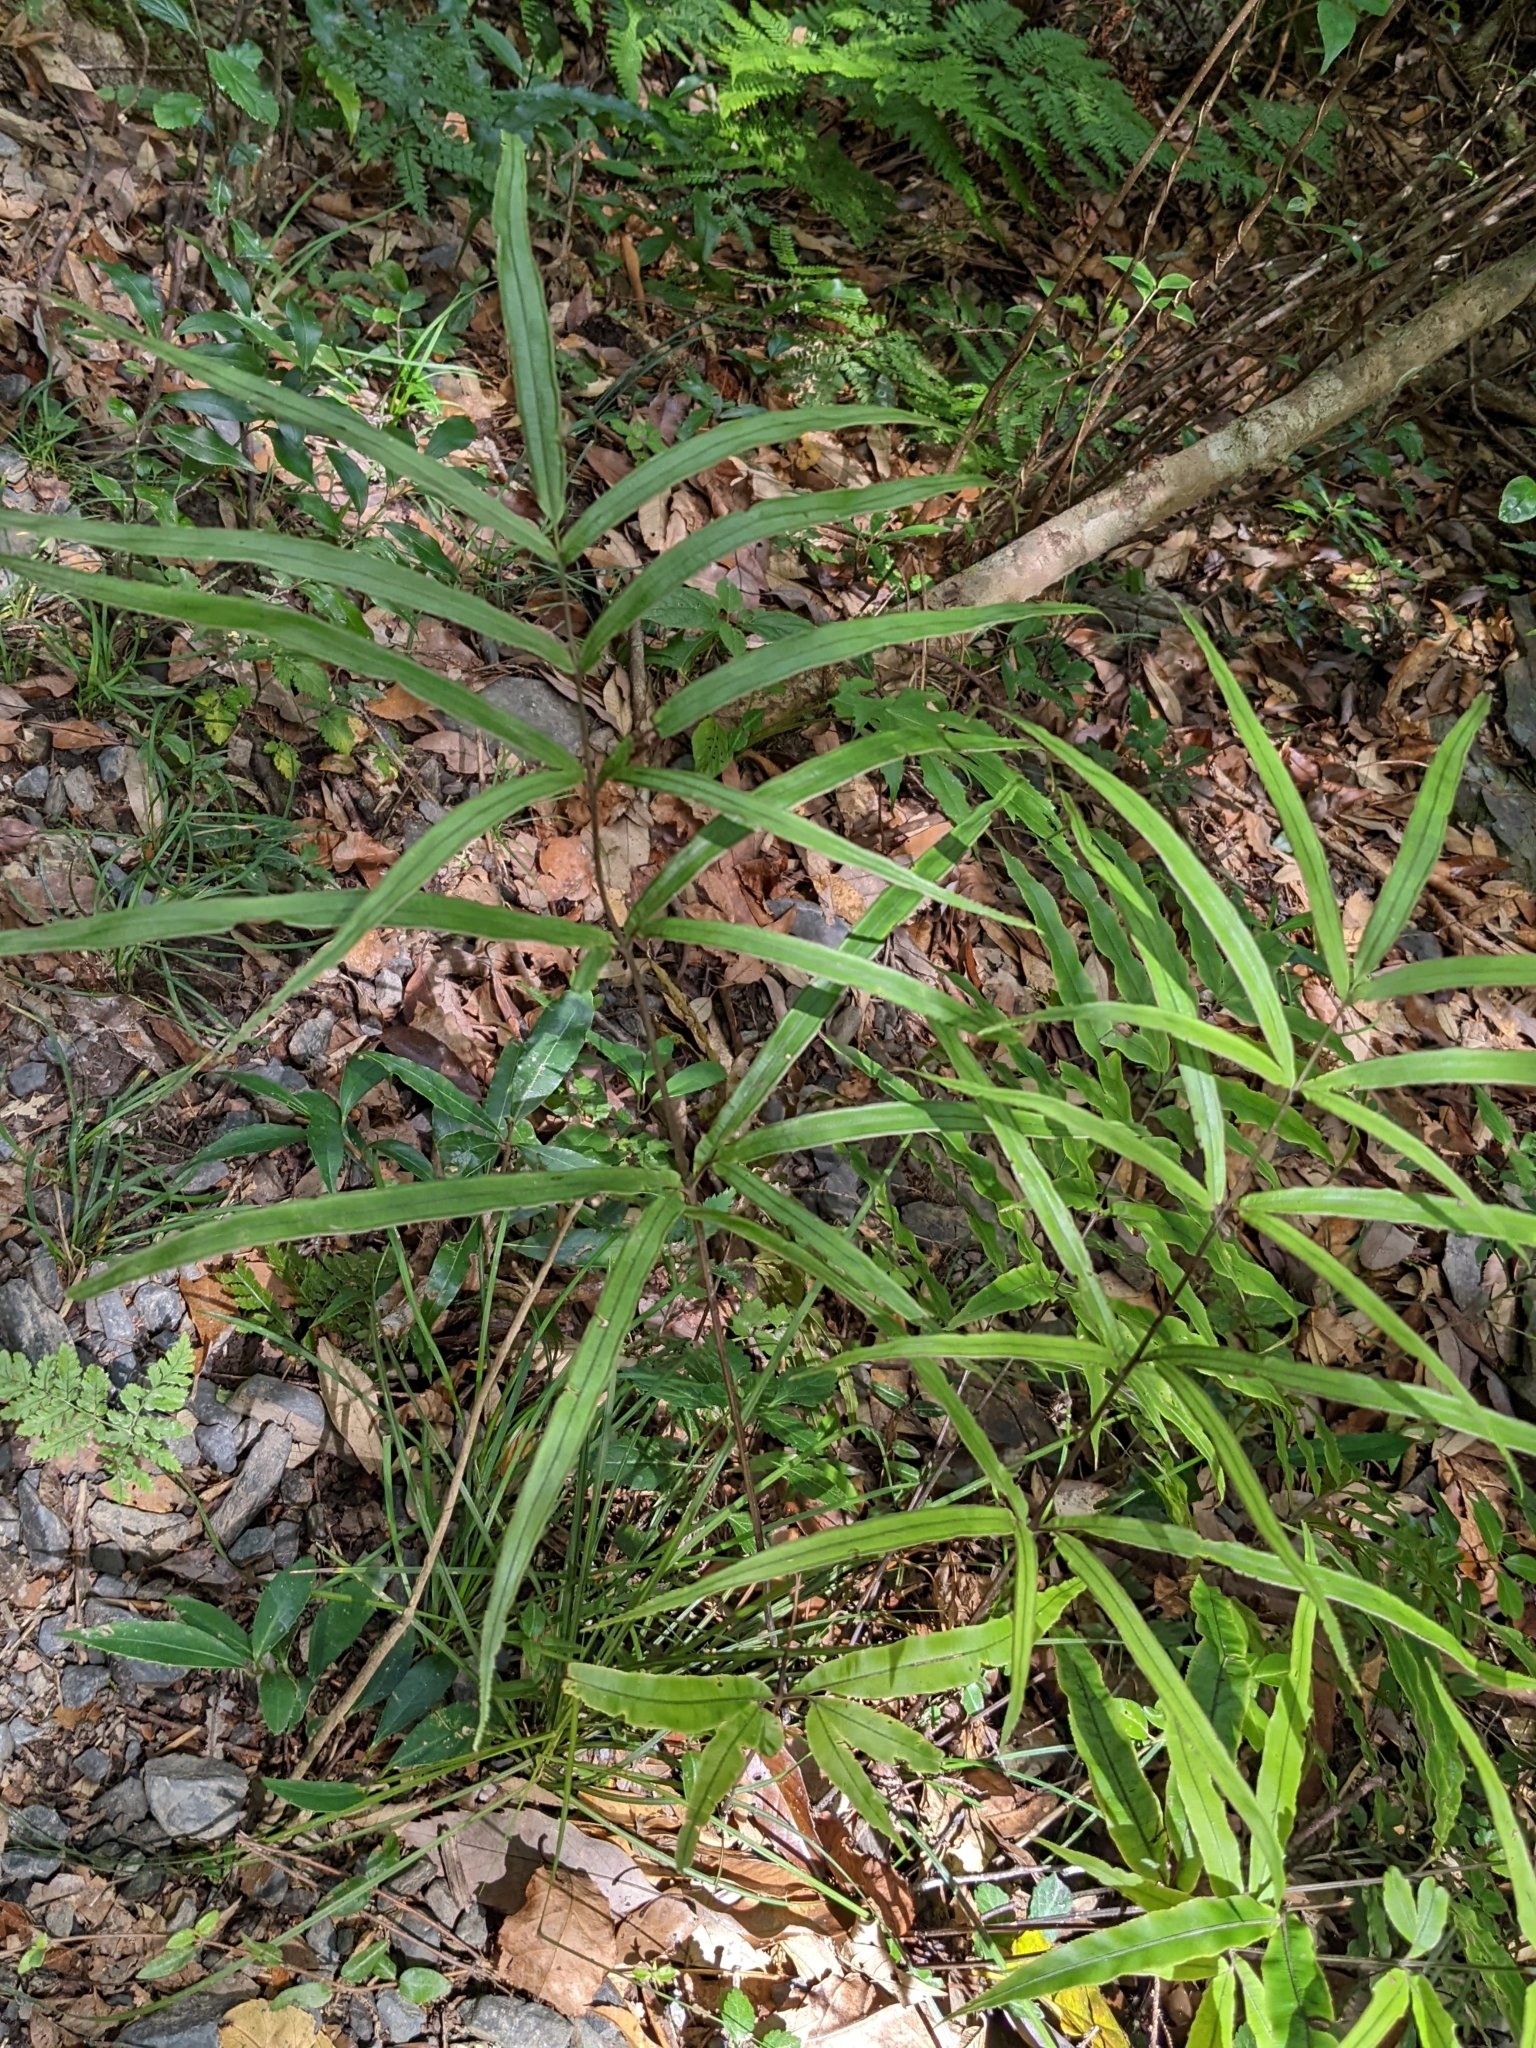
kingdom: Plantae
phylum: Tracheophyta
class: Polypodiopsida
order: Polypodiales
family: Pteridaceae
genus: Pteris
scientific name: Pteris cretica
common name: Ribbon fern
